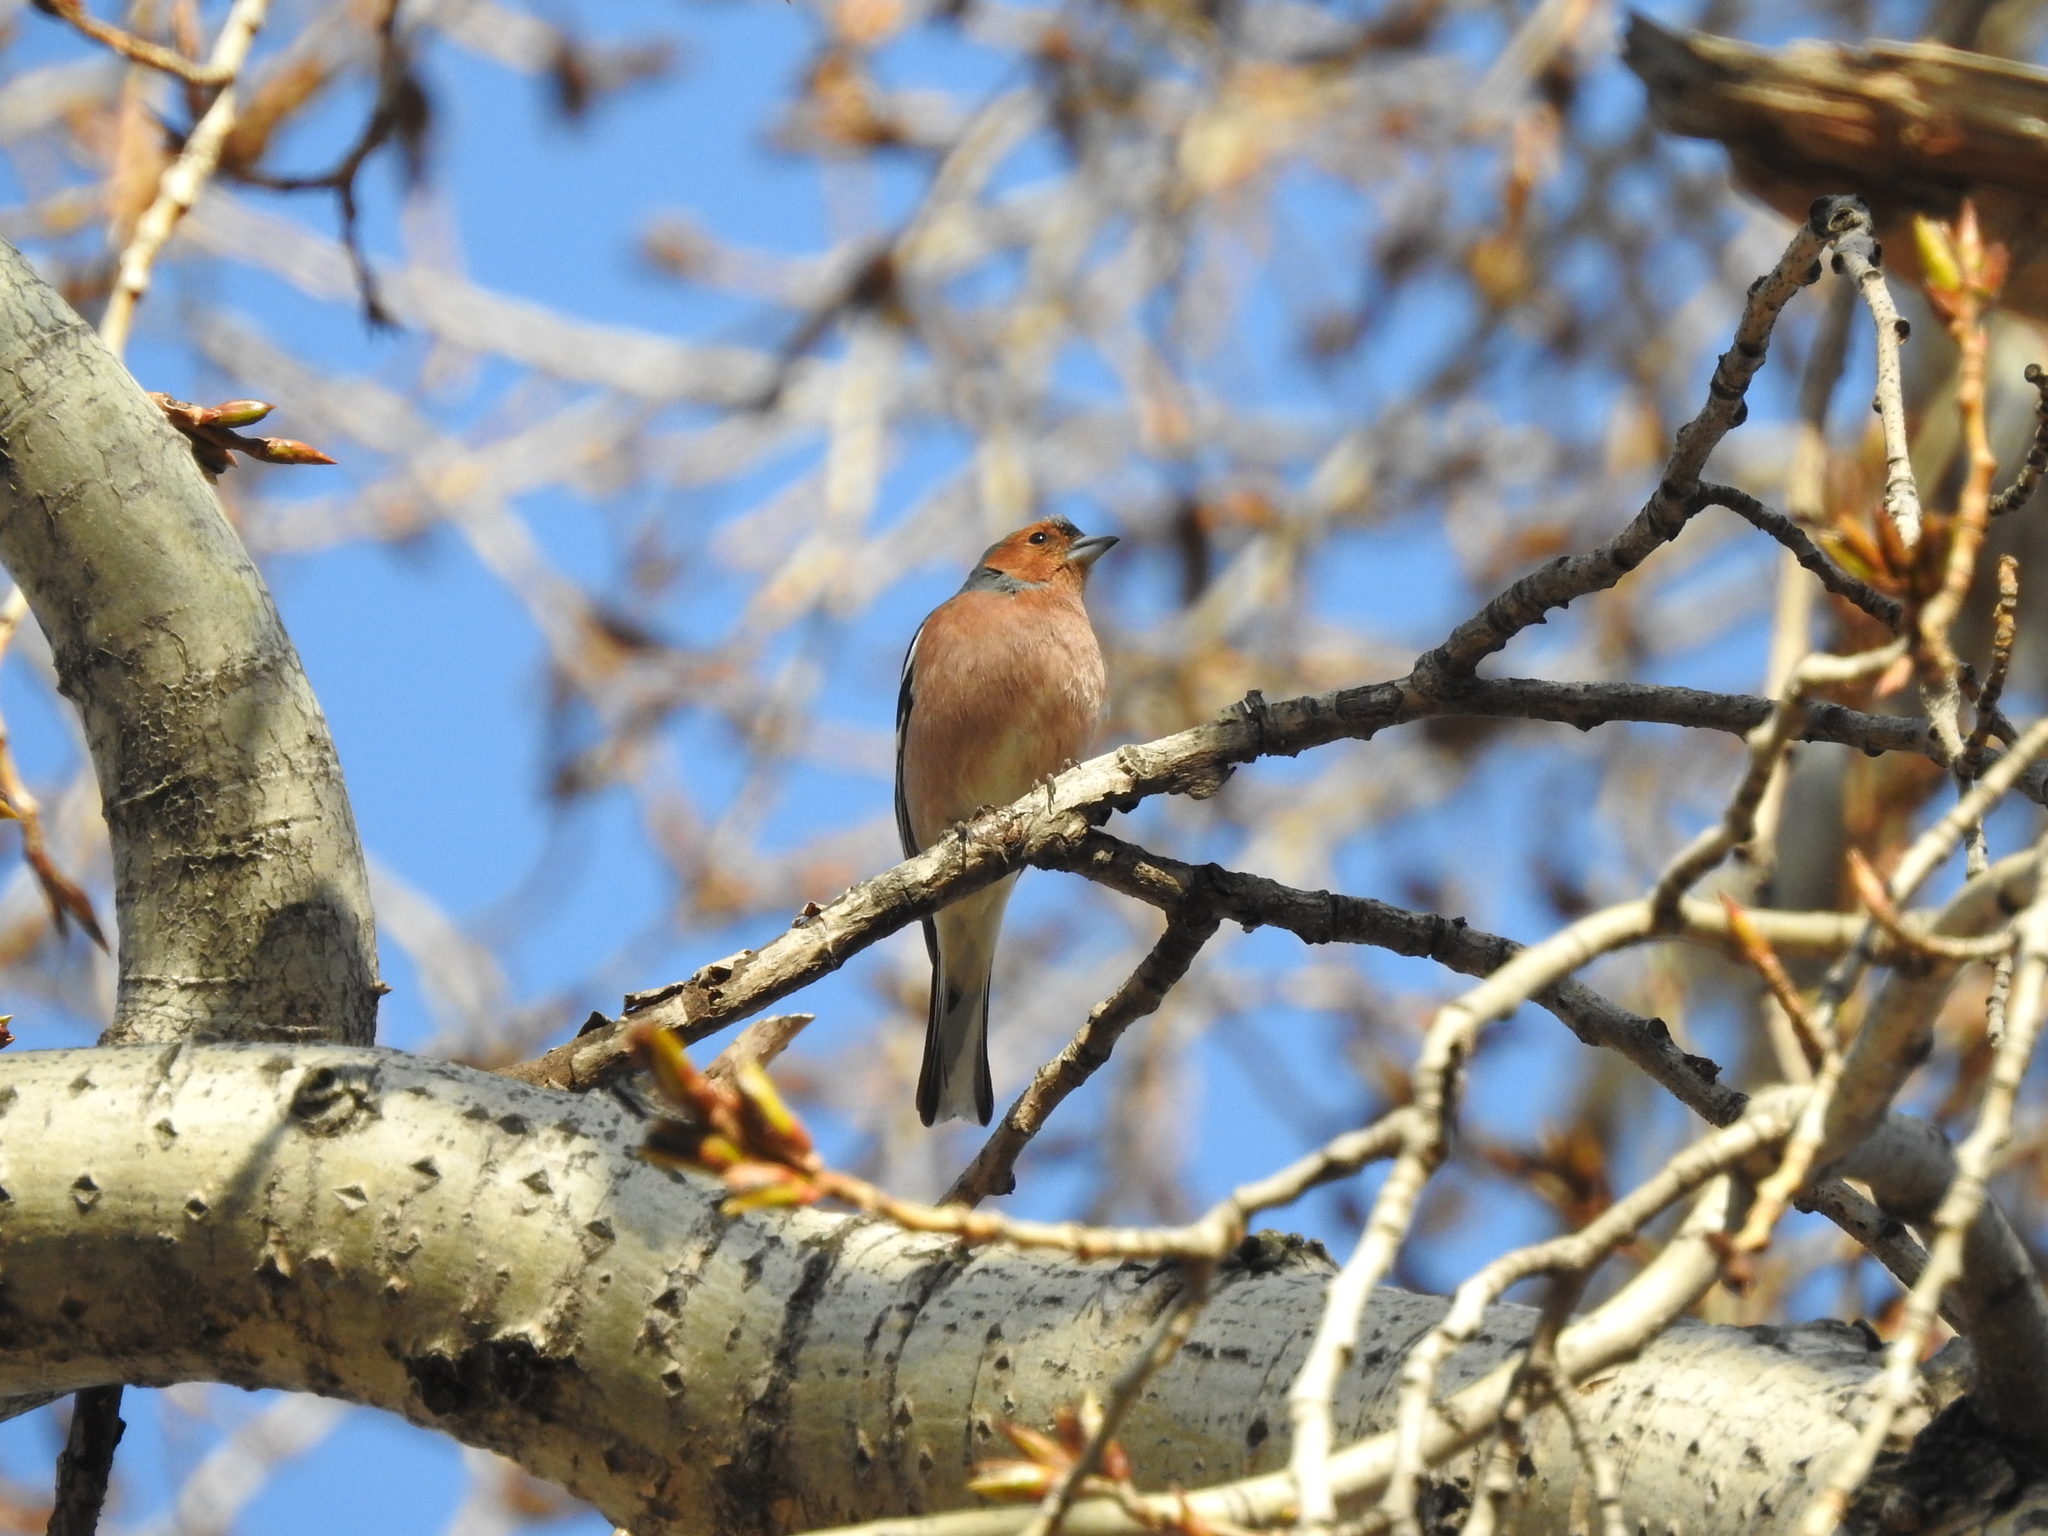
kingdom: Animalia
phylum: Chordata
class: Aves
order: Passeriformes
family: Fringillidae
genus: Fringilla
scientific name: Fringilla coelebs
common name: Common chaffinch
